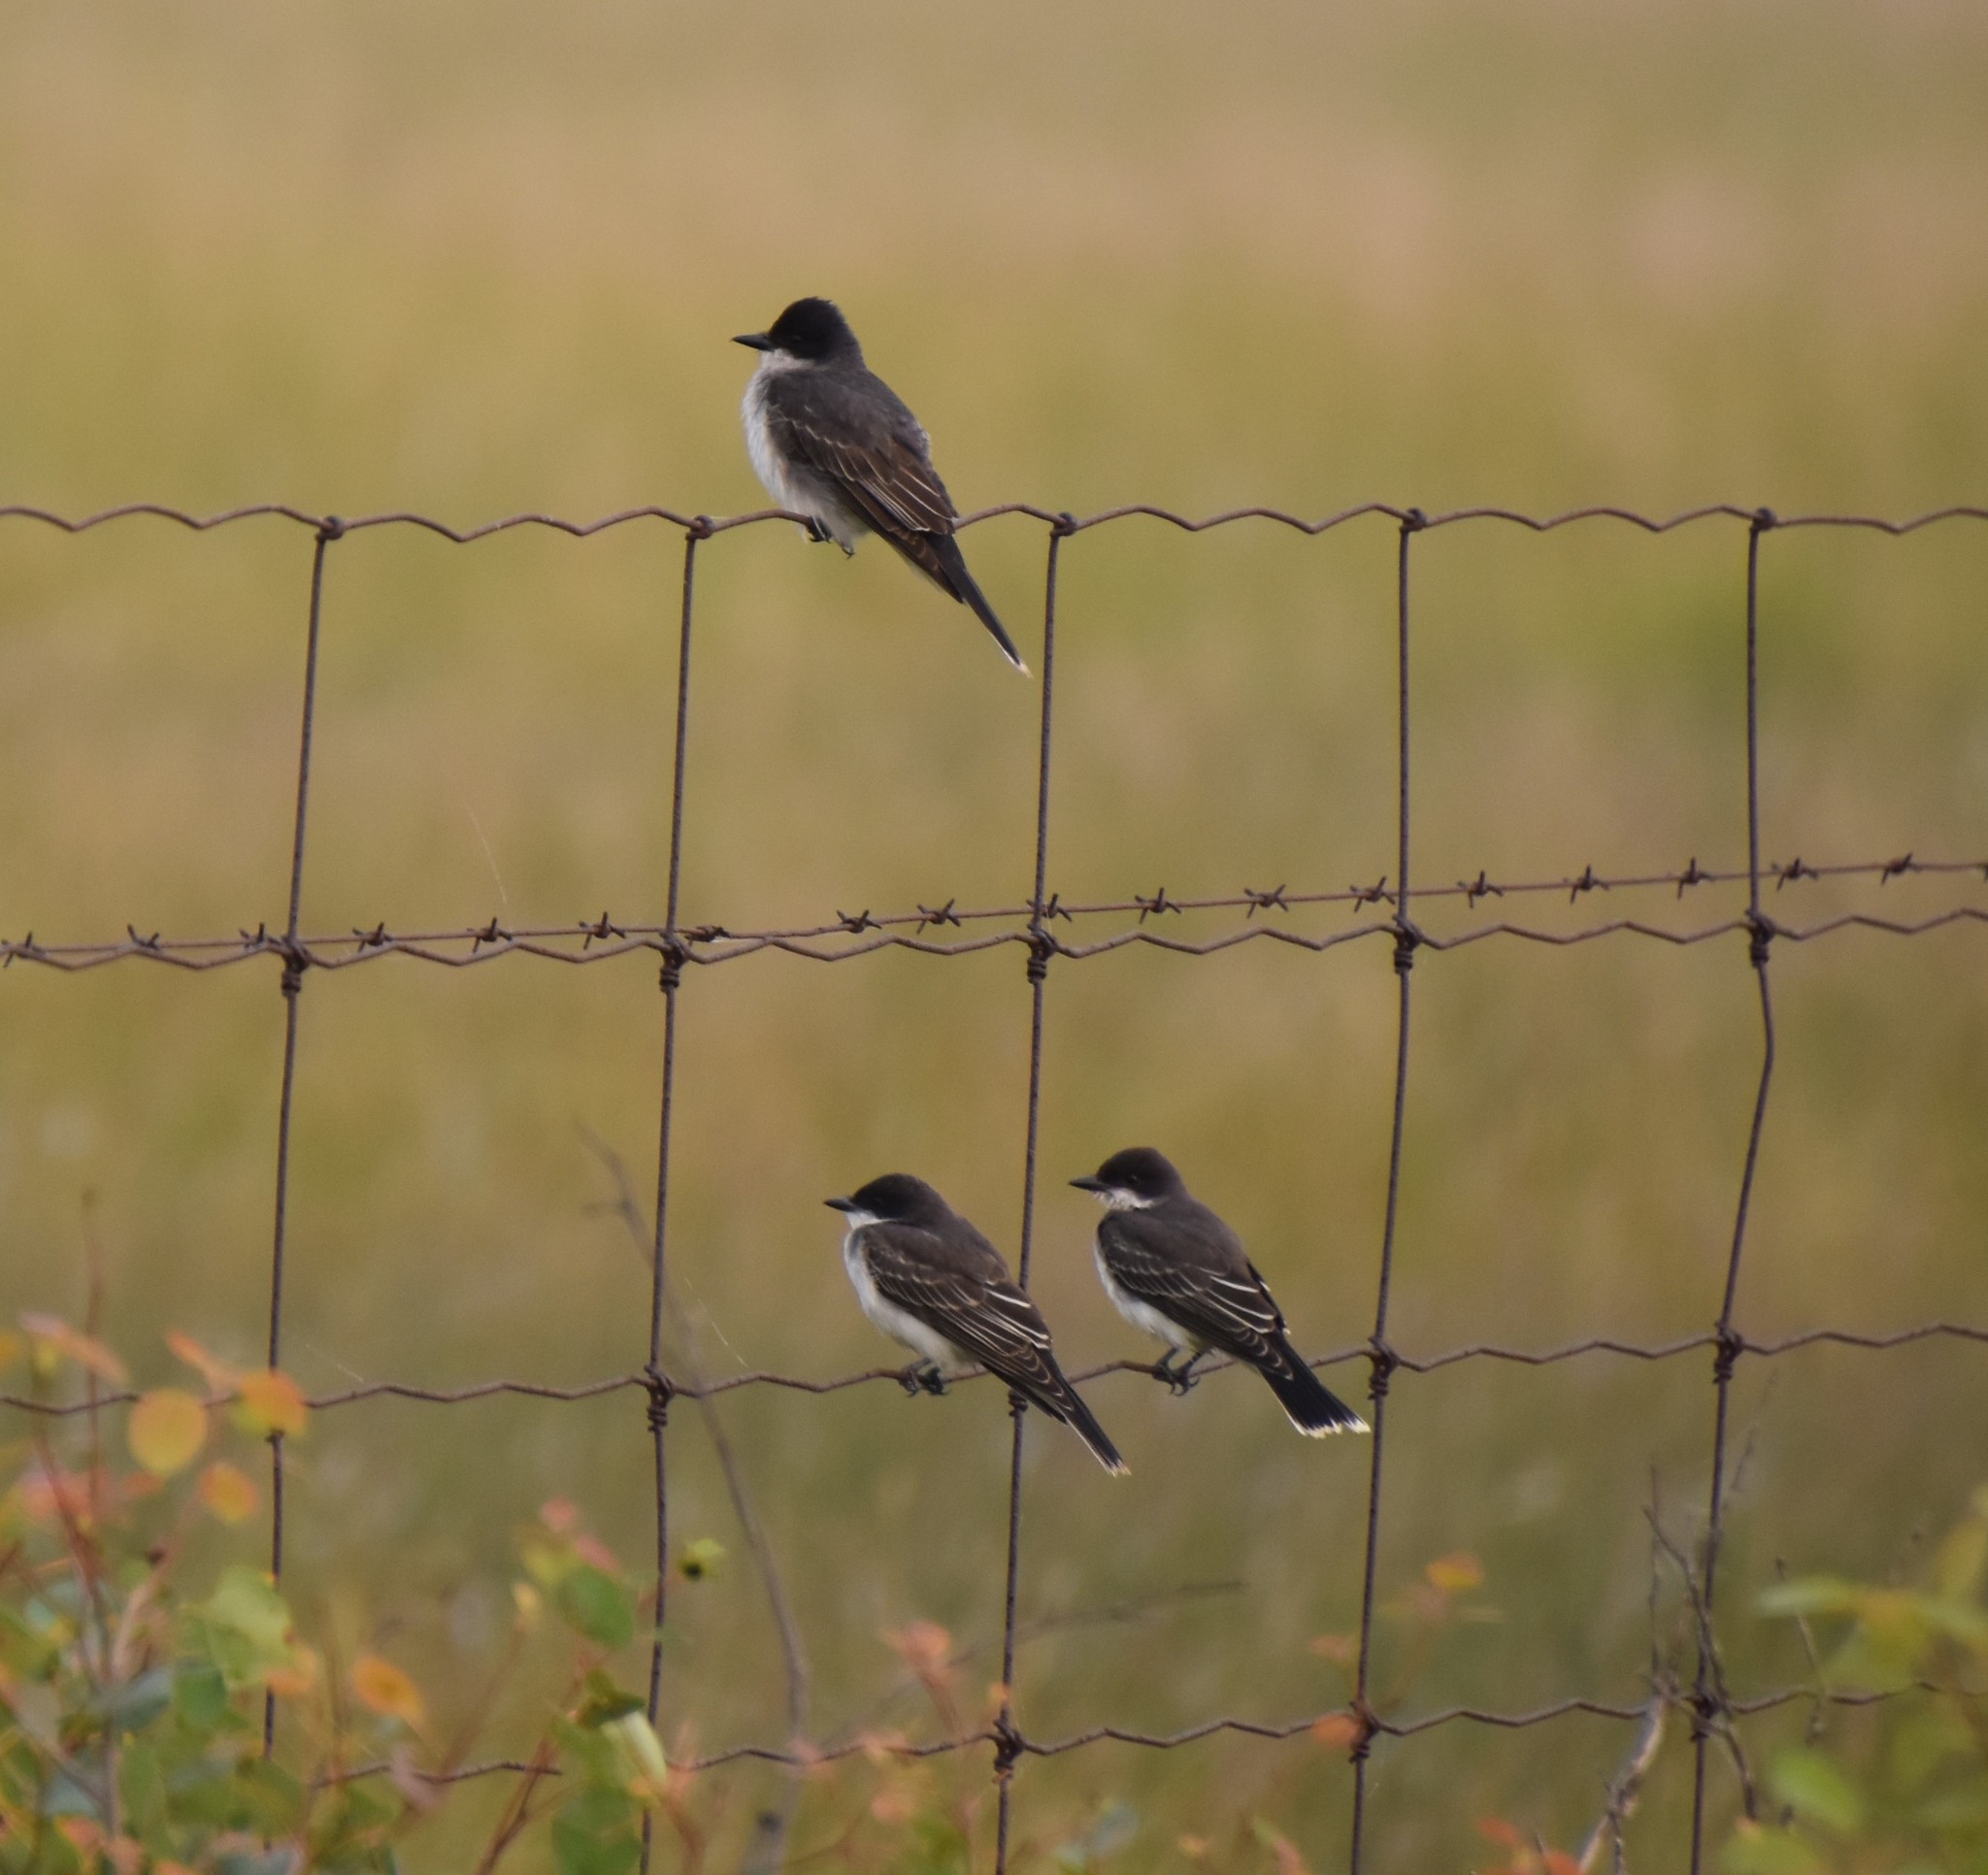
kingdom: Animalia
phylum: Chordata
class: Aves
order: Passeriformes
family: Tyrannidae
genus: Tyrannus
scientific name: Tyrannus tyrannus
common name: Eastern kingbird
